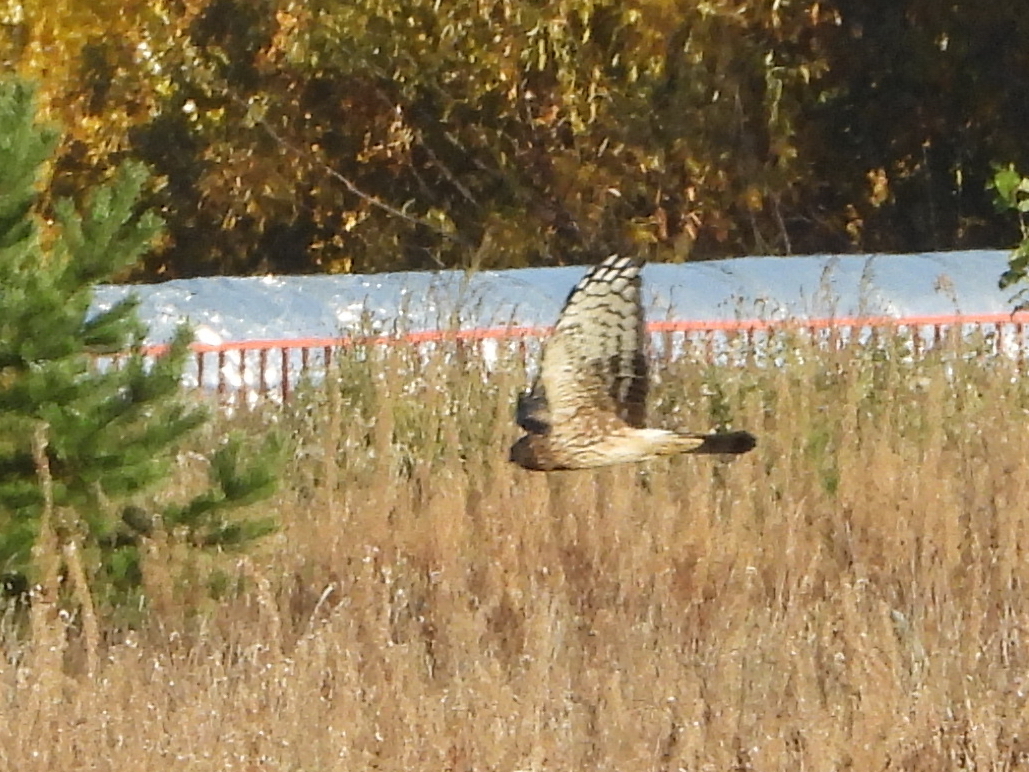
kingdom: Animalia
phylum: Chordata
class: Aves
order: Accipitriformes
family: Accipitridae
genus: Circus
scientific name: Circus cyaneus
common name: Hen harrier
